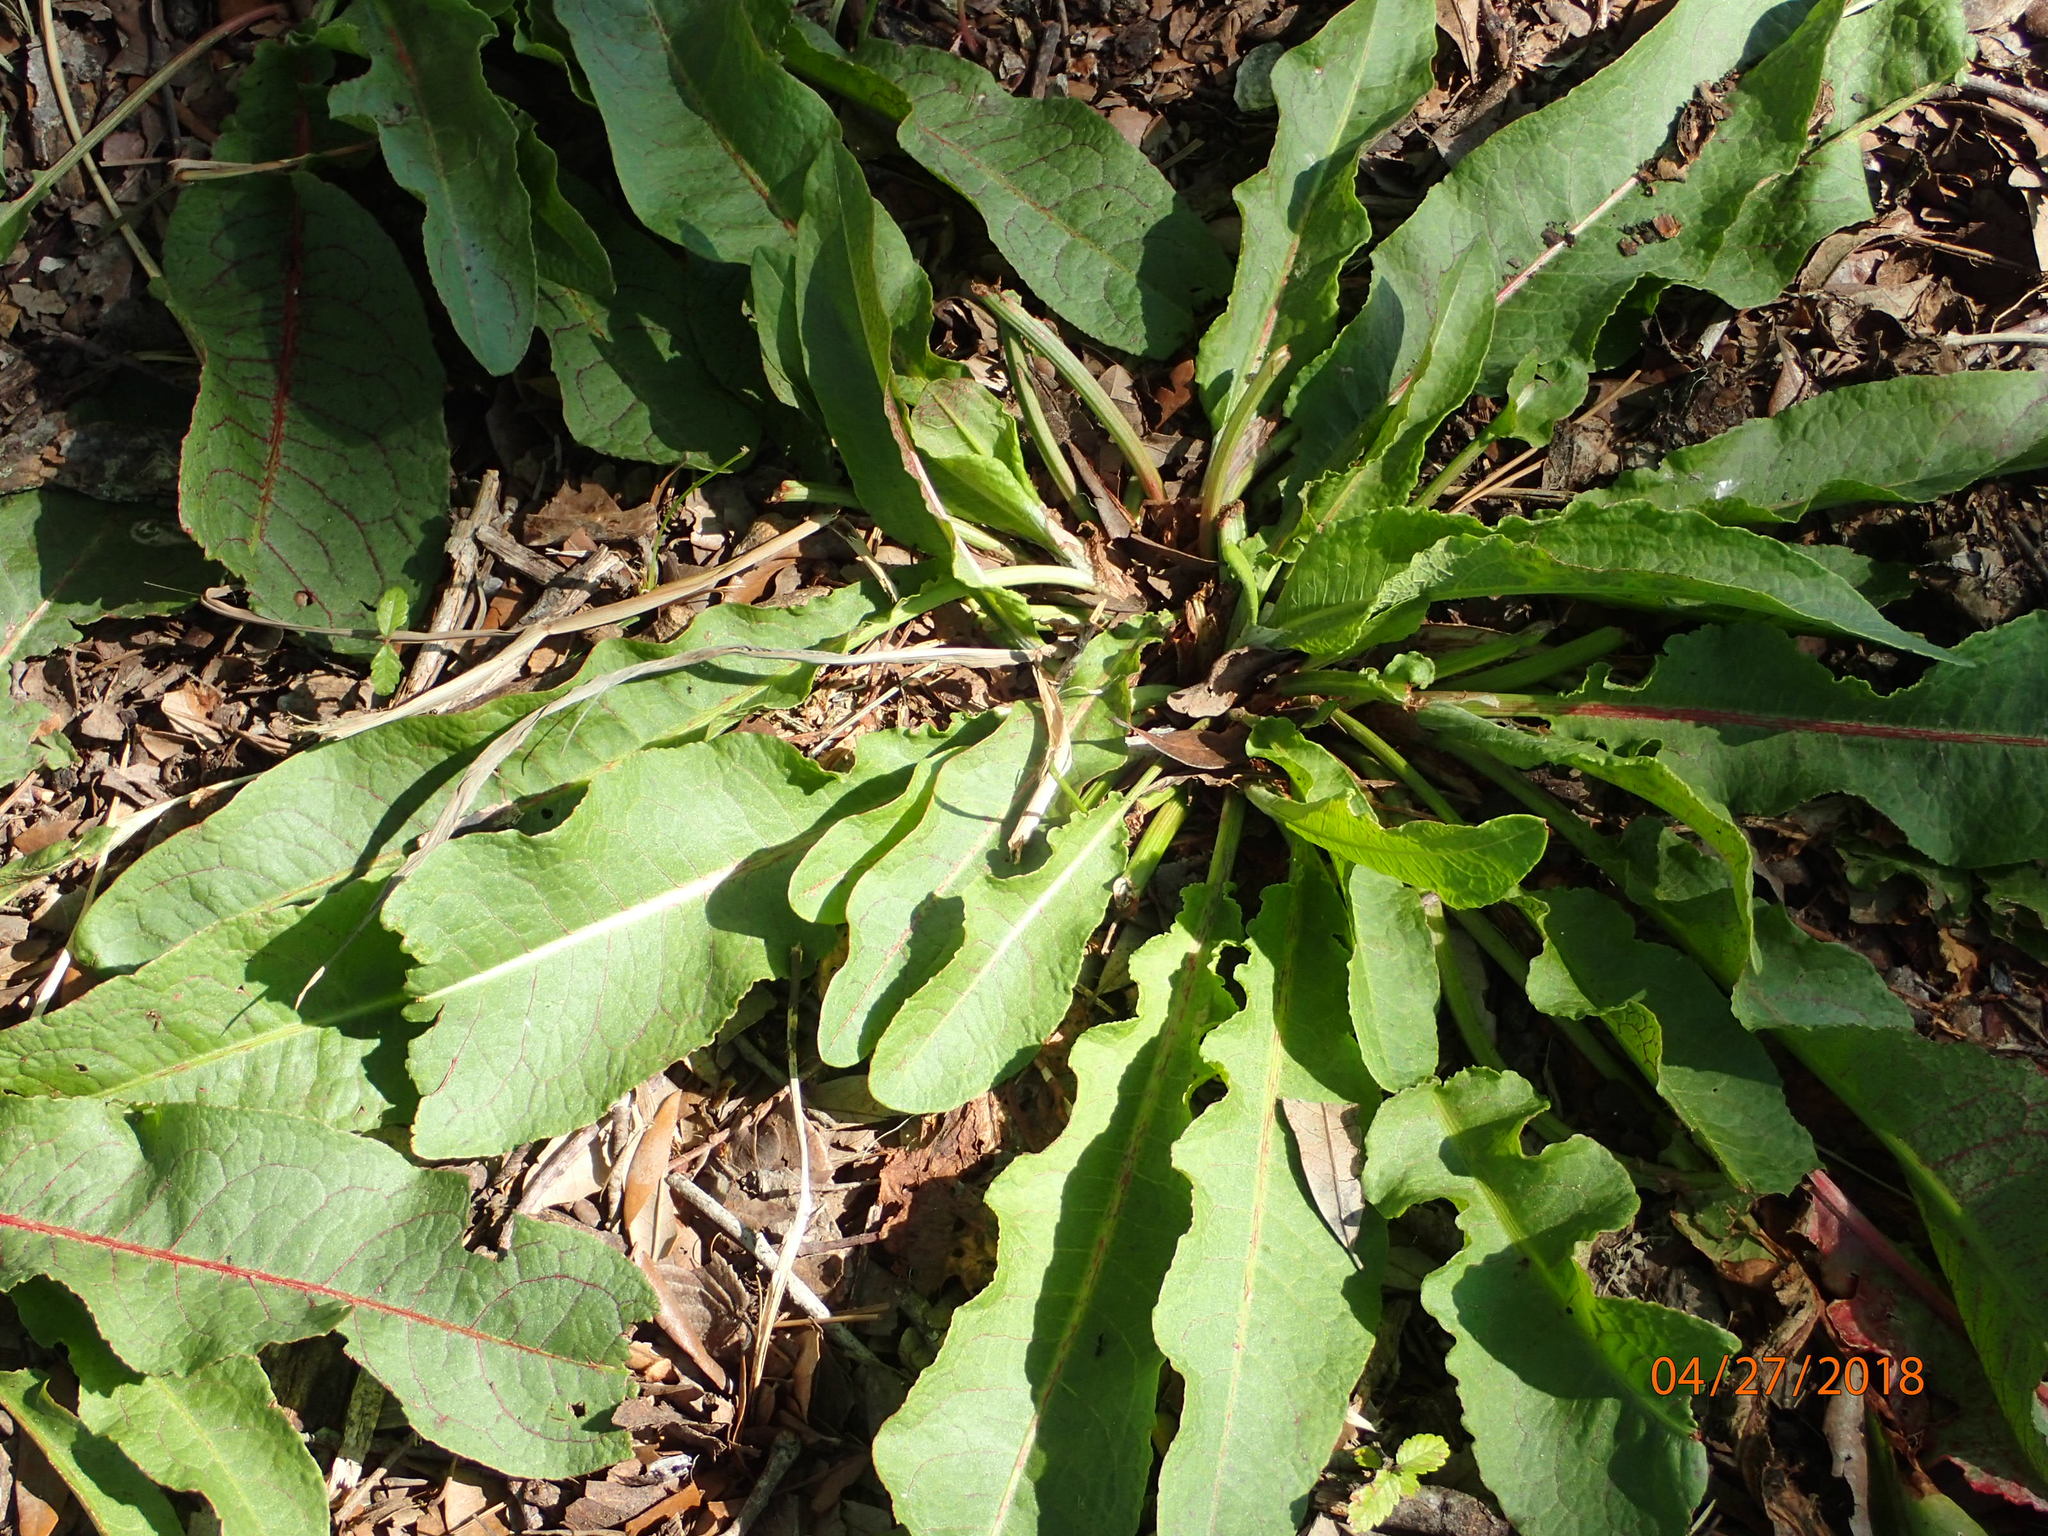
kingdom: Plantae
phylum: Tracheophyta
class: Magnoliopsida
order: Caryophyllales
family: Polygonaceae
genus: Rumex
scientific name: Rumex crispus
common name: Curled dock
